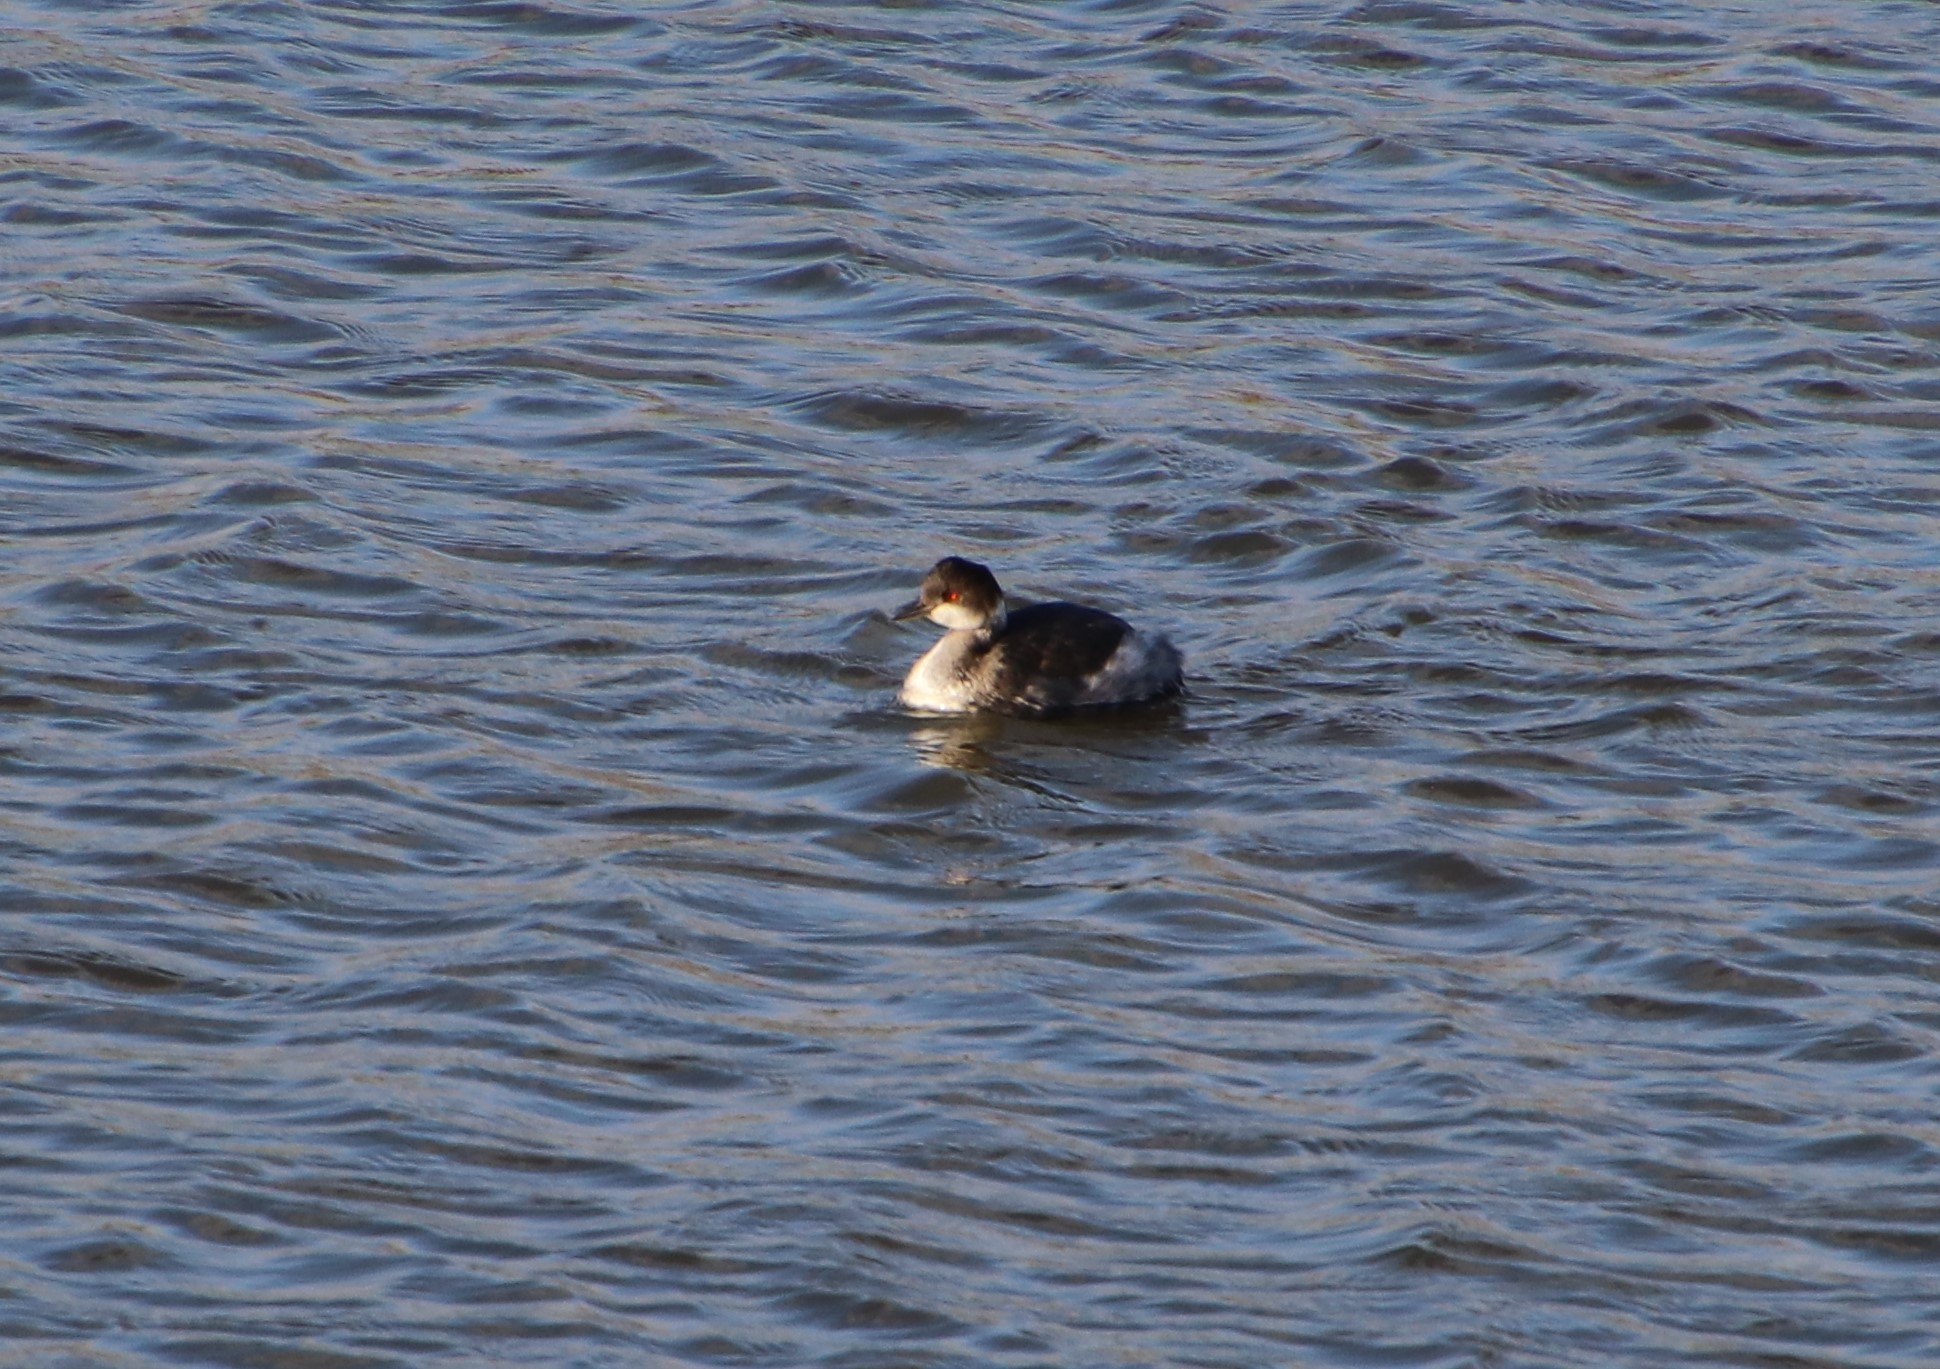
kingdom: Animalia
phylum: Chordata
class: Aves
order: Podicipediformes
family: Podicipedidae
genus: Podiceps
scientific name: Podiceps nigricollis
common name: Black-necked grebe
